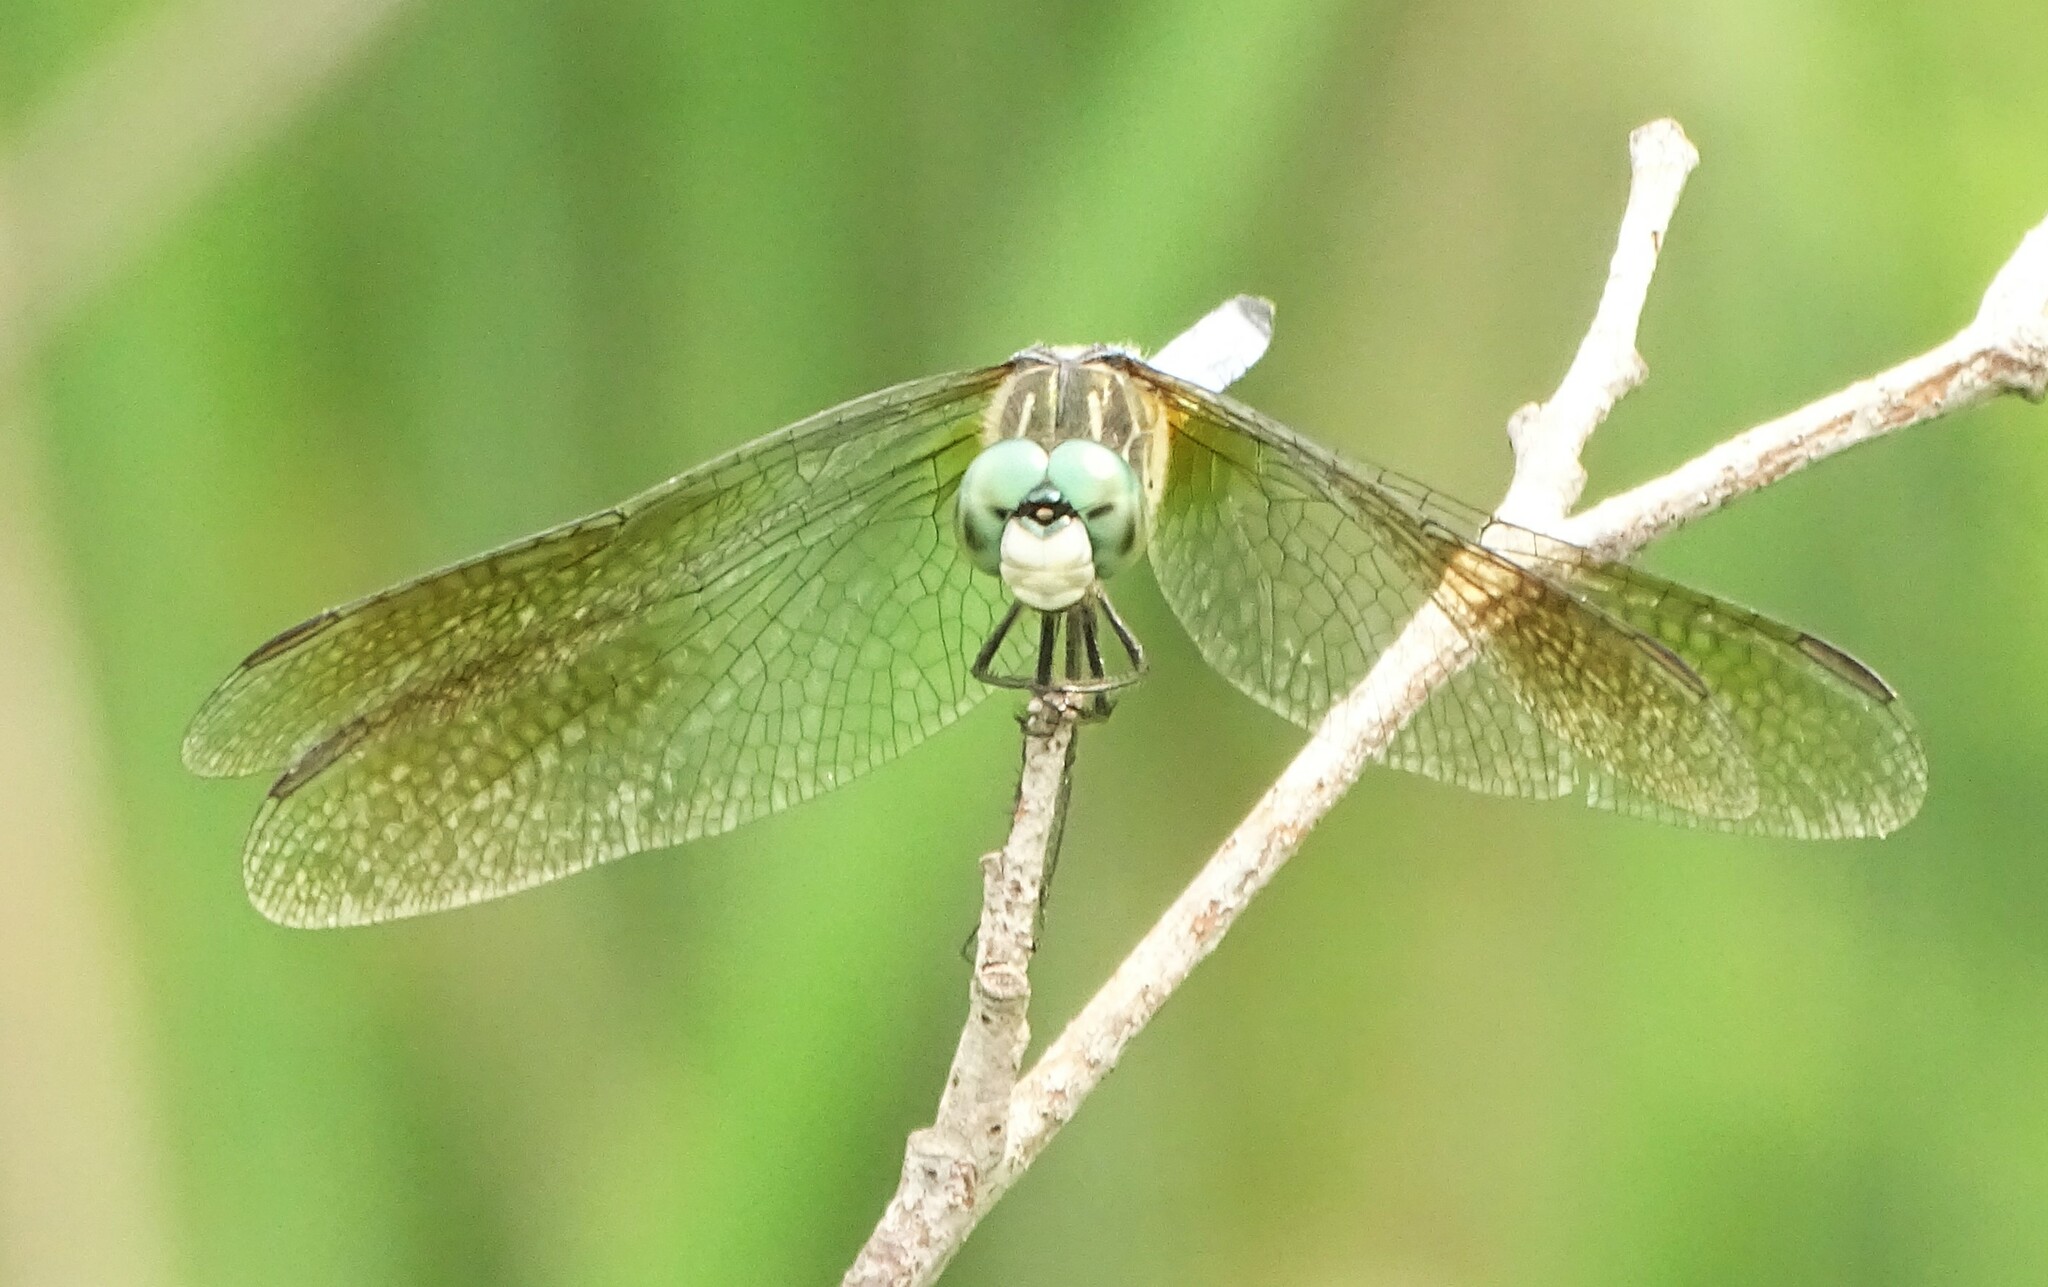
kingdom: Animalia
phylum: Arthropoda
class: Insecta
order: Odonata
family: Libellulidae
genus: Pachydiplax
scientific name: Pachydiplax longipennis
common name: Blue dasher
